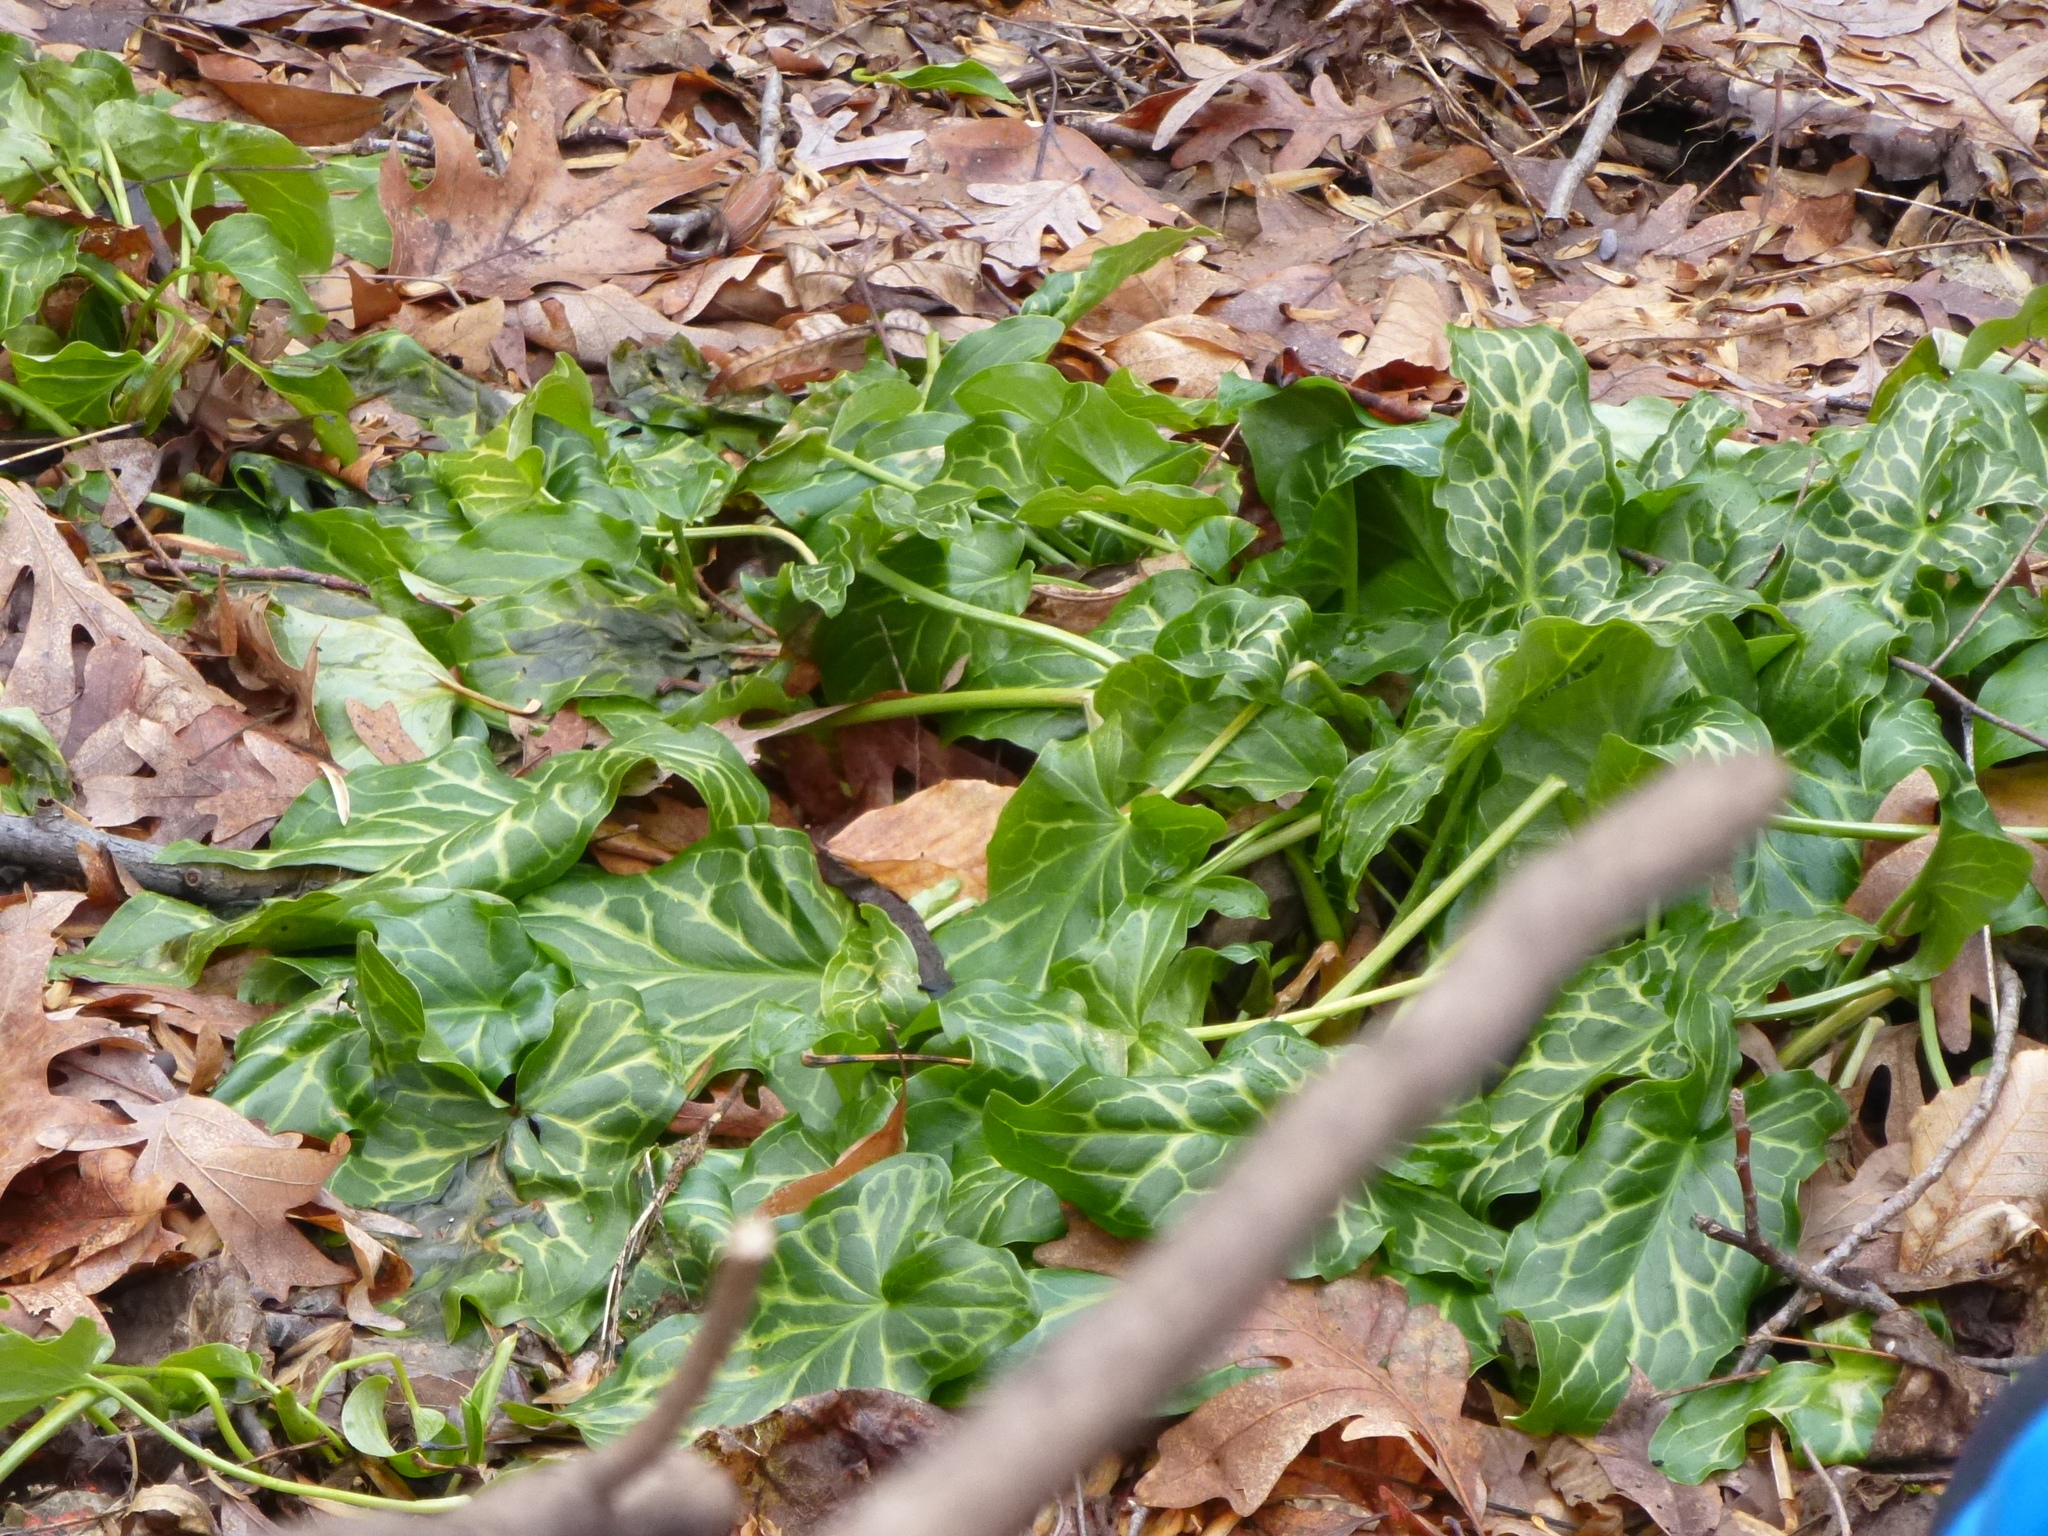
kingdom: Plantae
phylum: Tracheophyta
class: Liliopsida
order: Alismatales
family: Araceae
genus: Arum
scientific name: Arum italicum
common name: Italian lords-and-ladies
